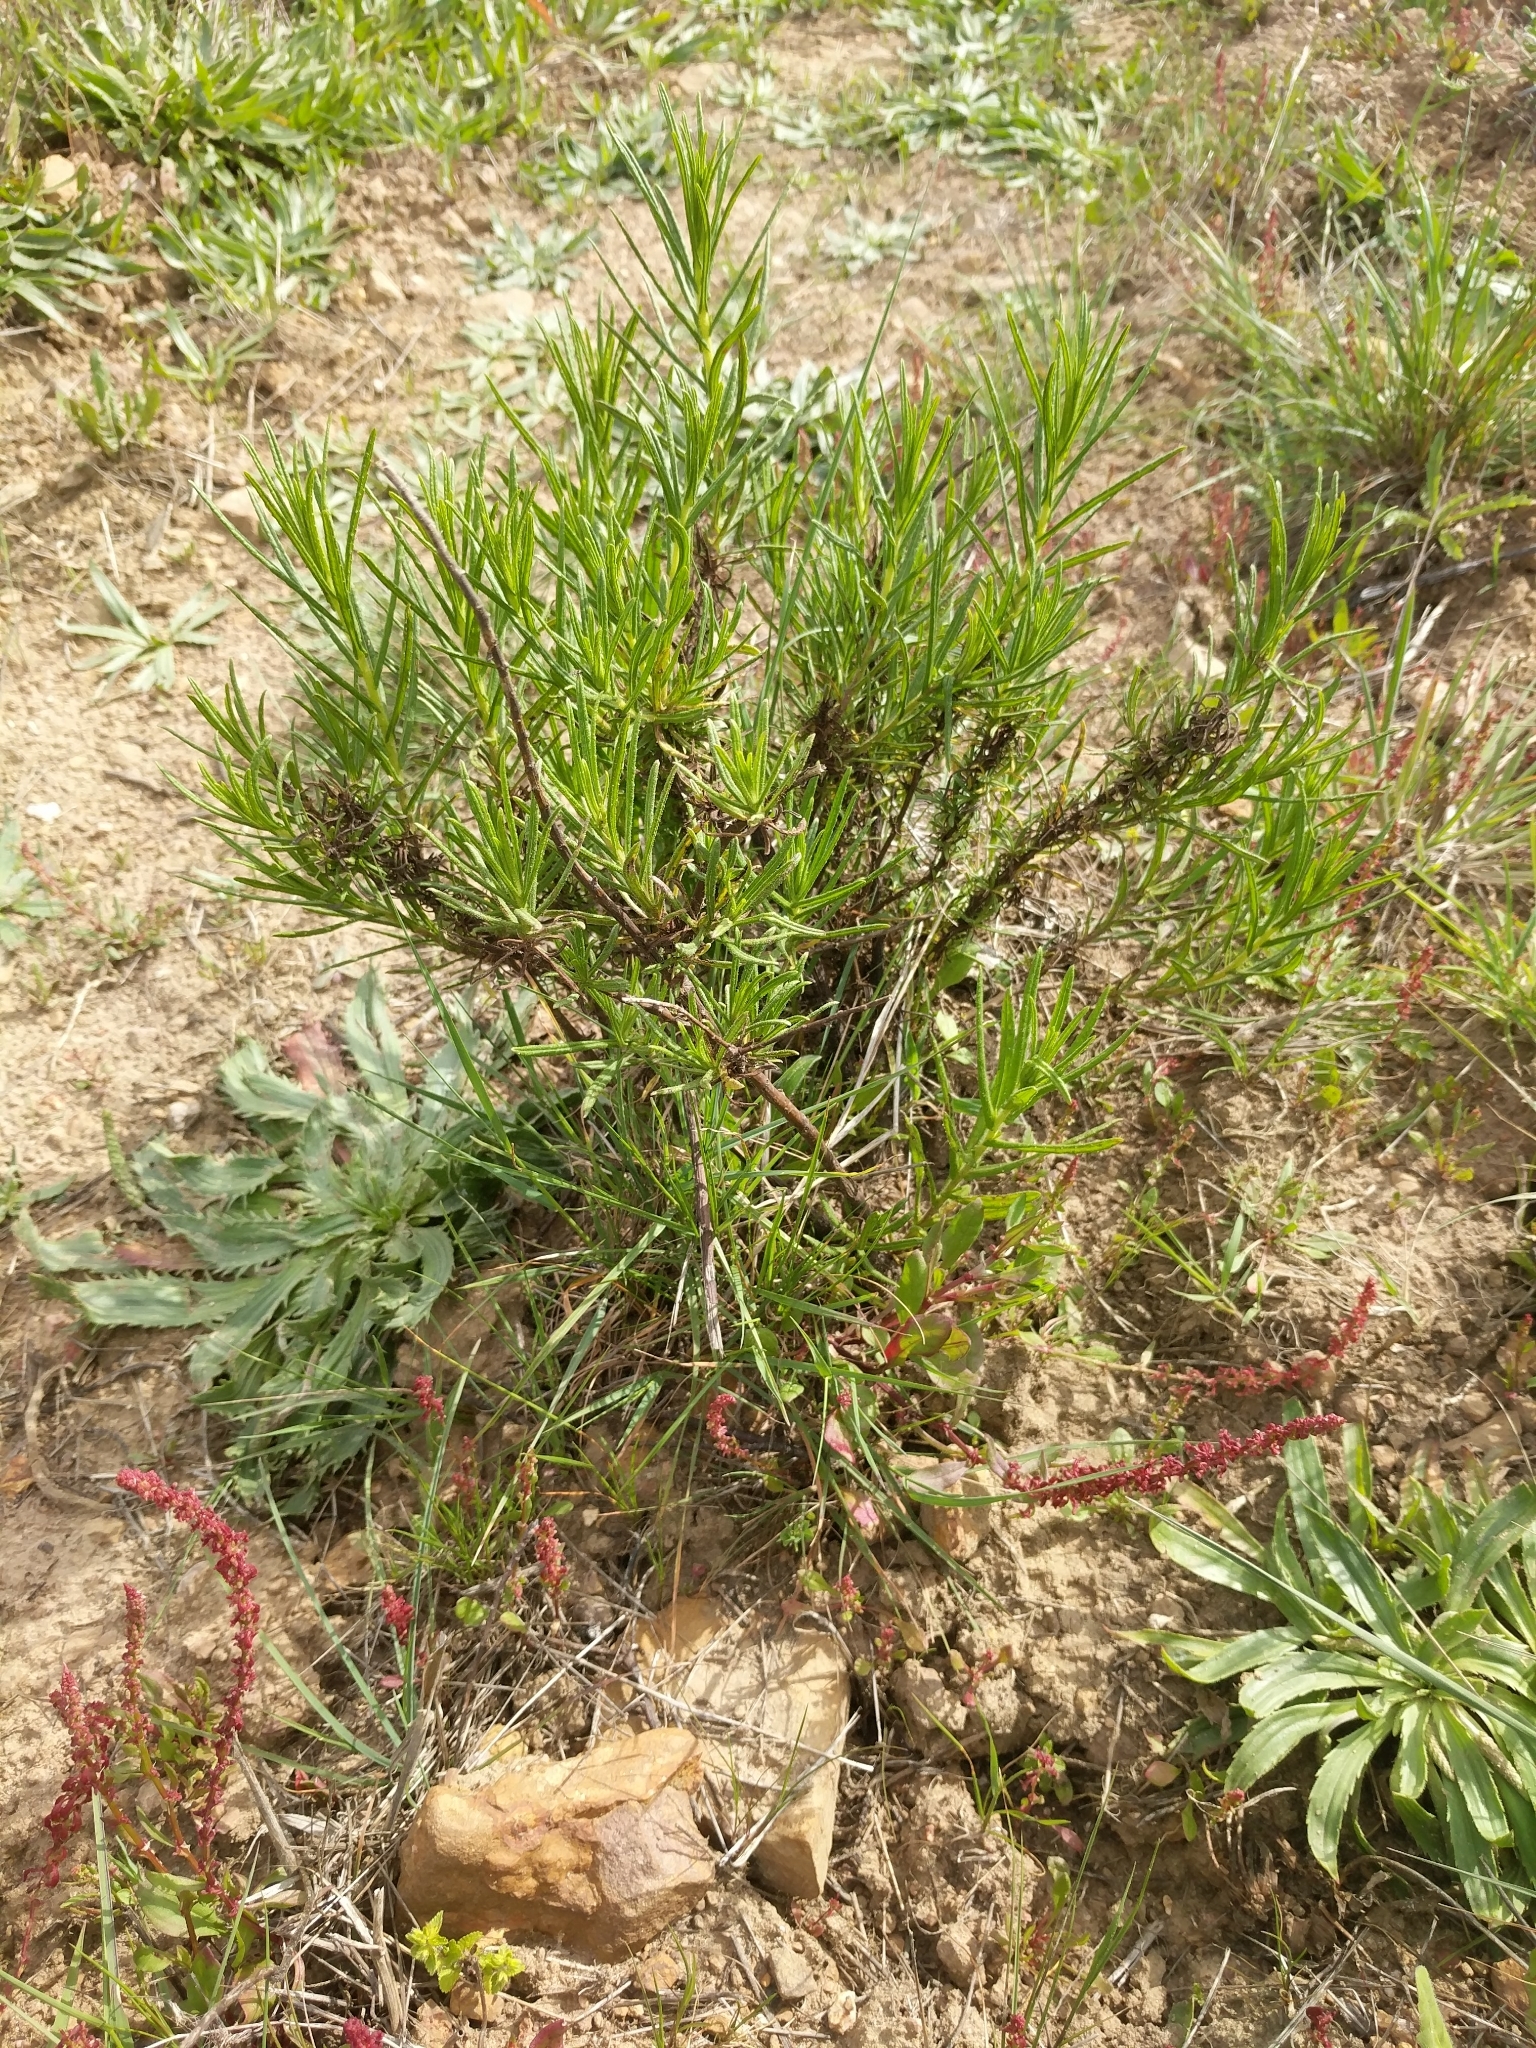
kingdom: Plantae
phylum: Tracheophyta
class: Magnoliopsida
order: Asterales
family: Asteraceae
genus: Dittrichia
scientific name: Dittrichia viscosa
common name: Woody fleabane
